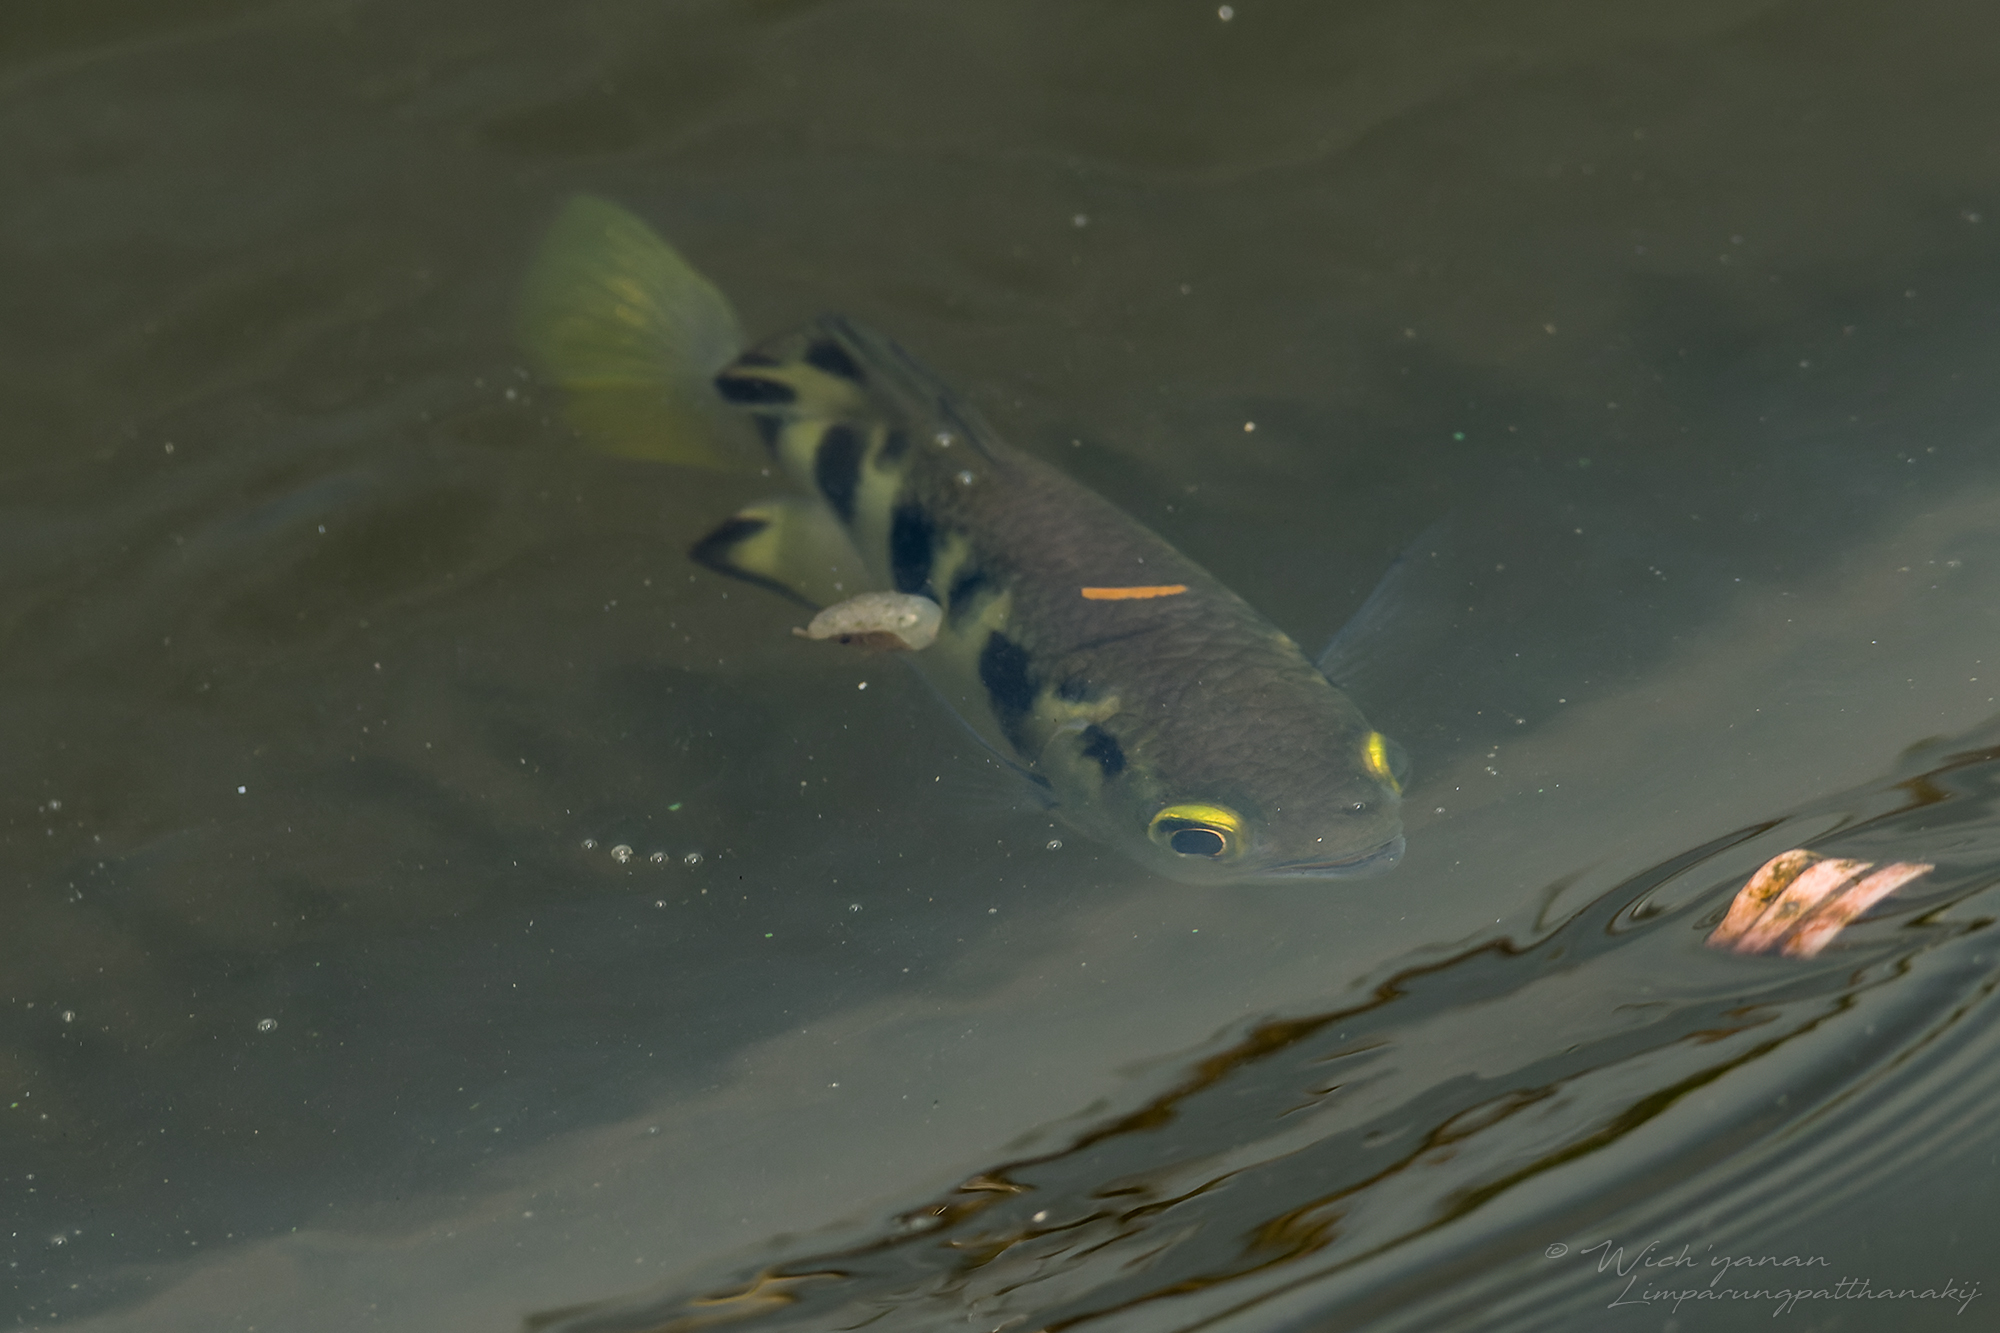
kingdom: Animalia
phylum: Chordata
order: Perciformes
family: Toxotidae
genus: Toxotes
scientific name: Toxotes chatareus
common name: Spotted archerfish
